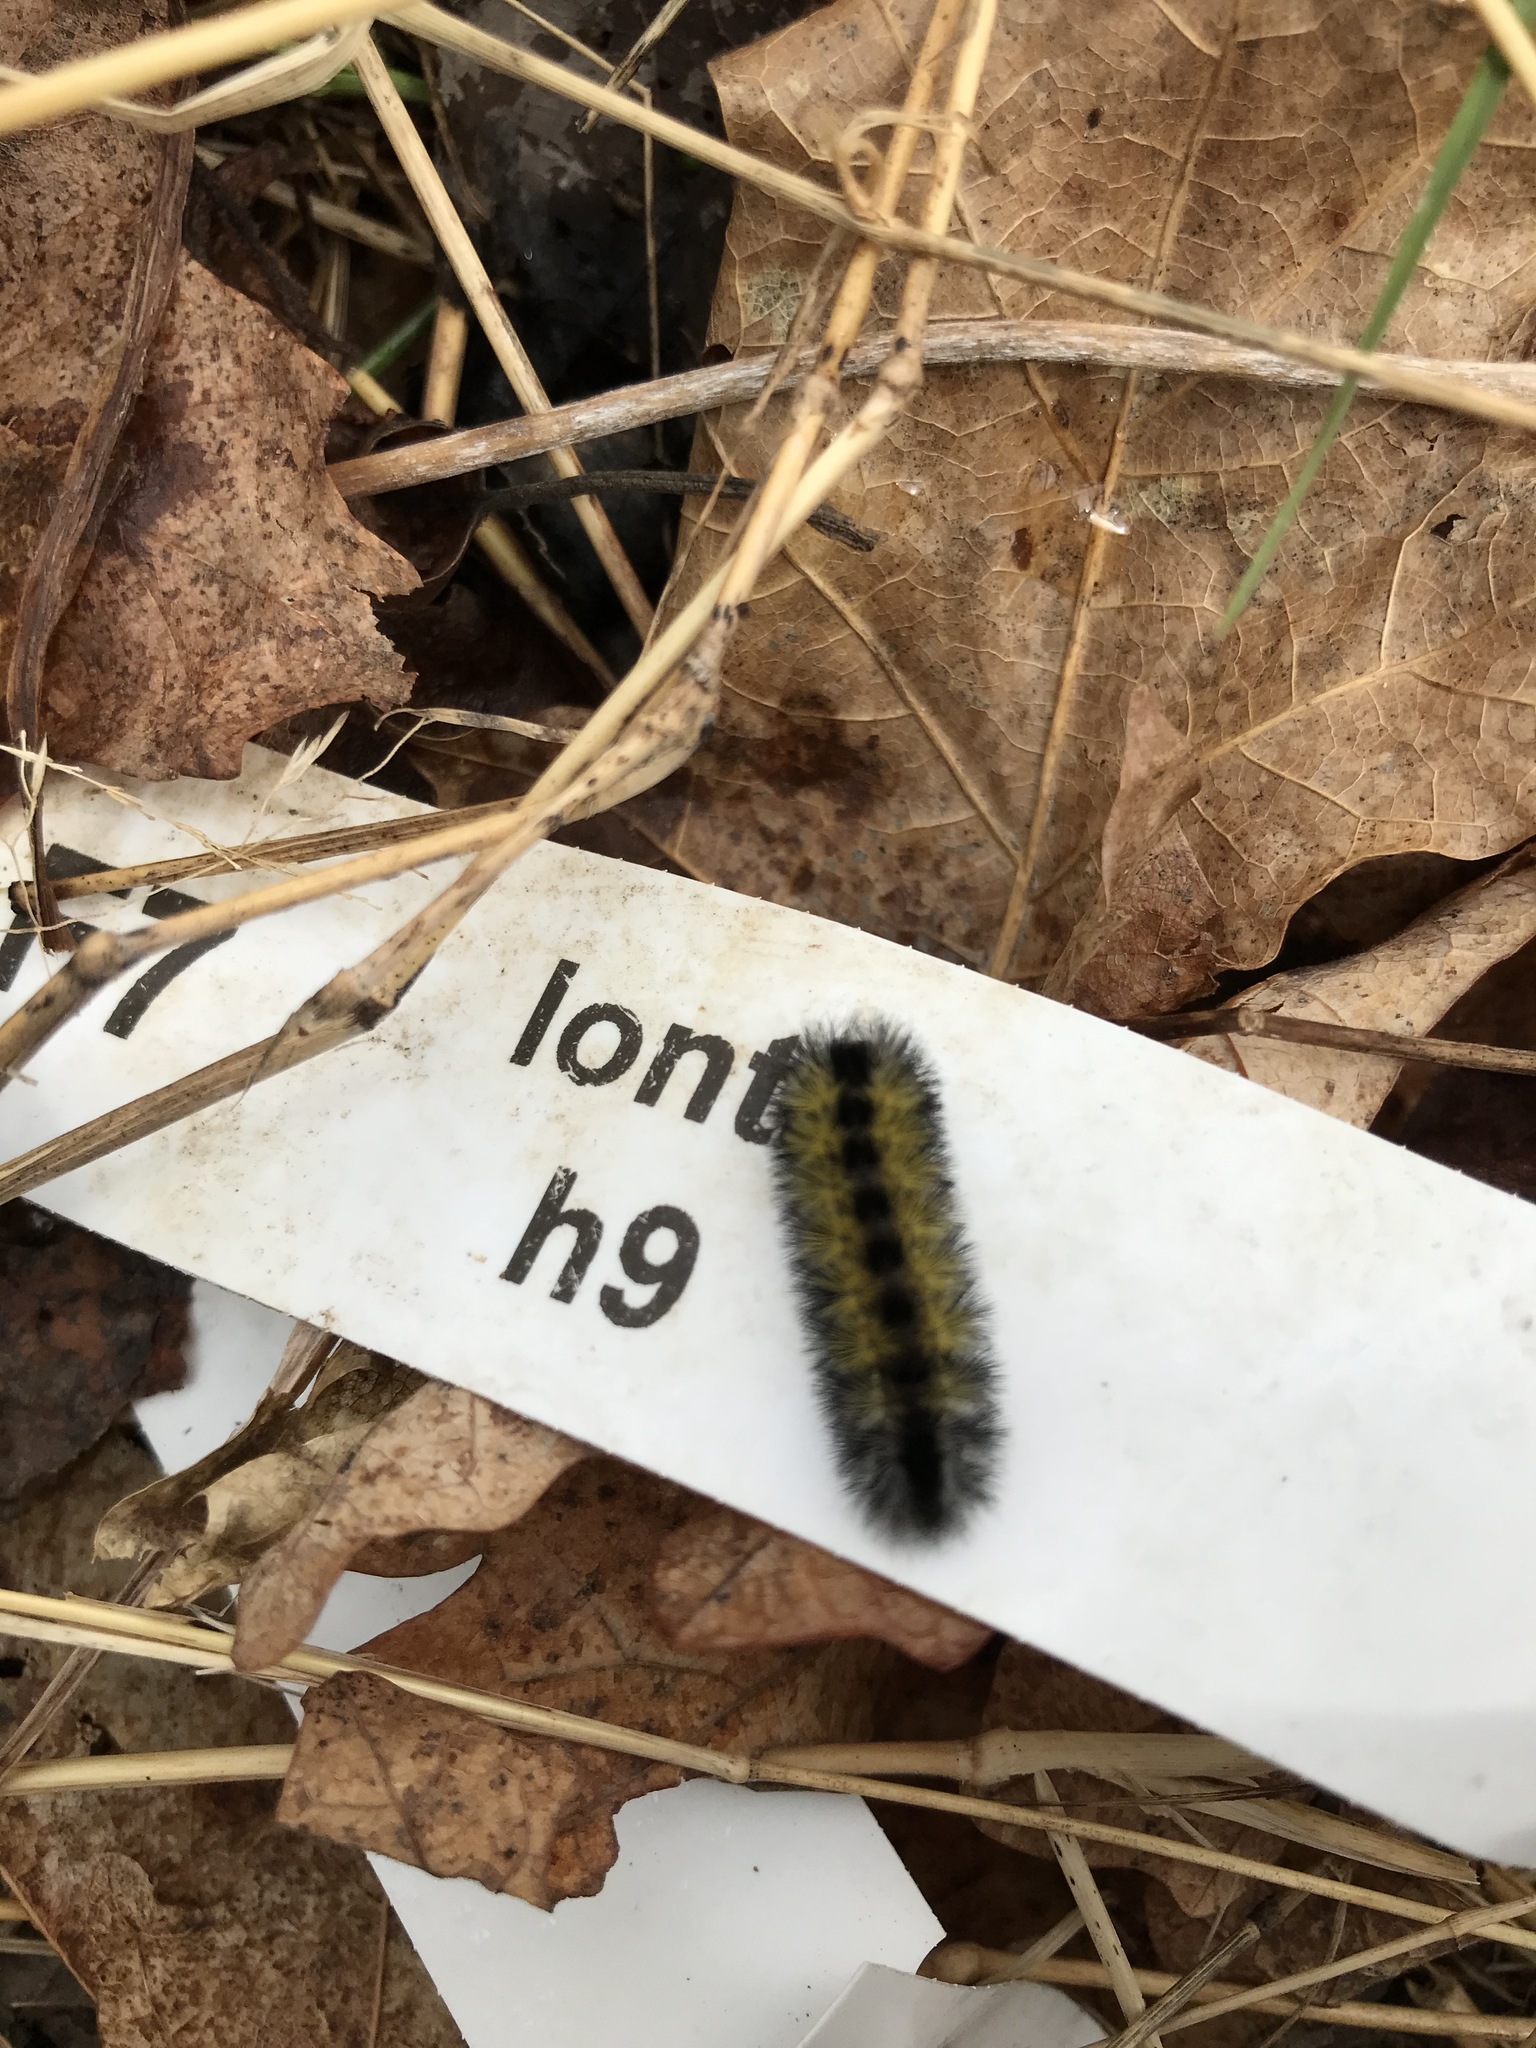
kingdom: Animalia
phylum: Arthropoda
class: Insecta
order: Lepidoptera
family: Erebidae
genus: Ctenucha
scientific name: Ctenucha virginica
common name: Virginia ctenucha moth
